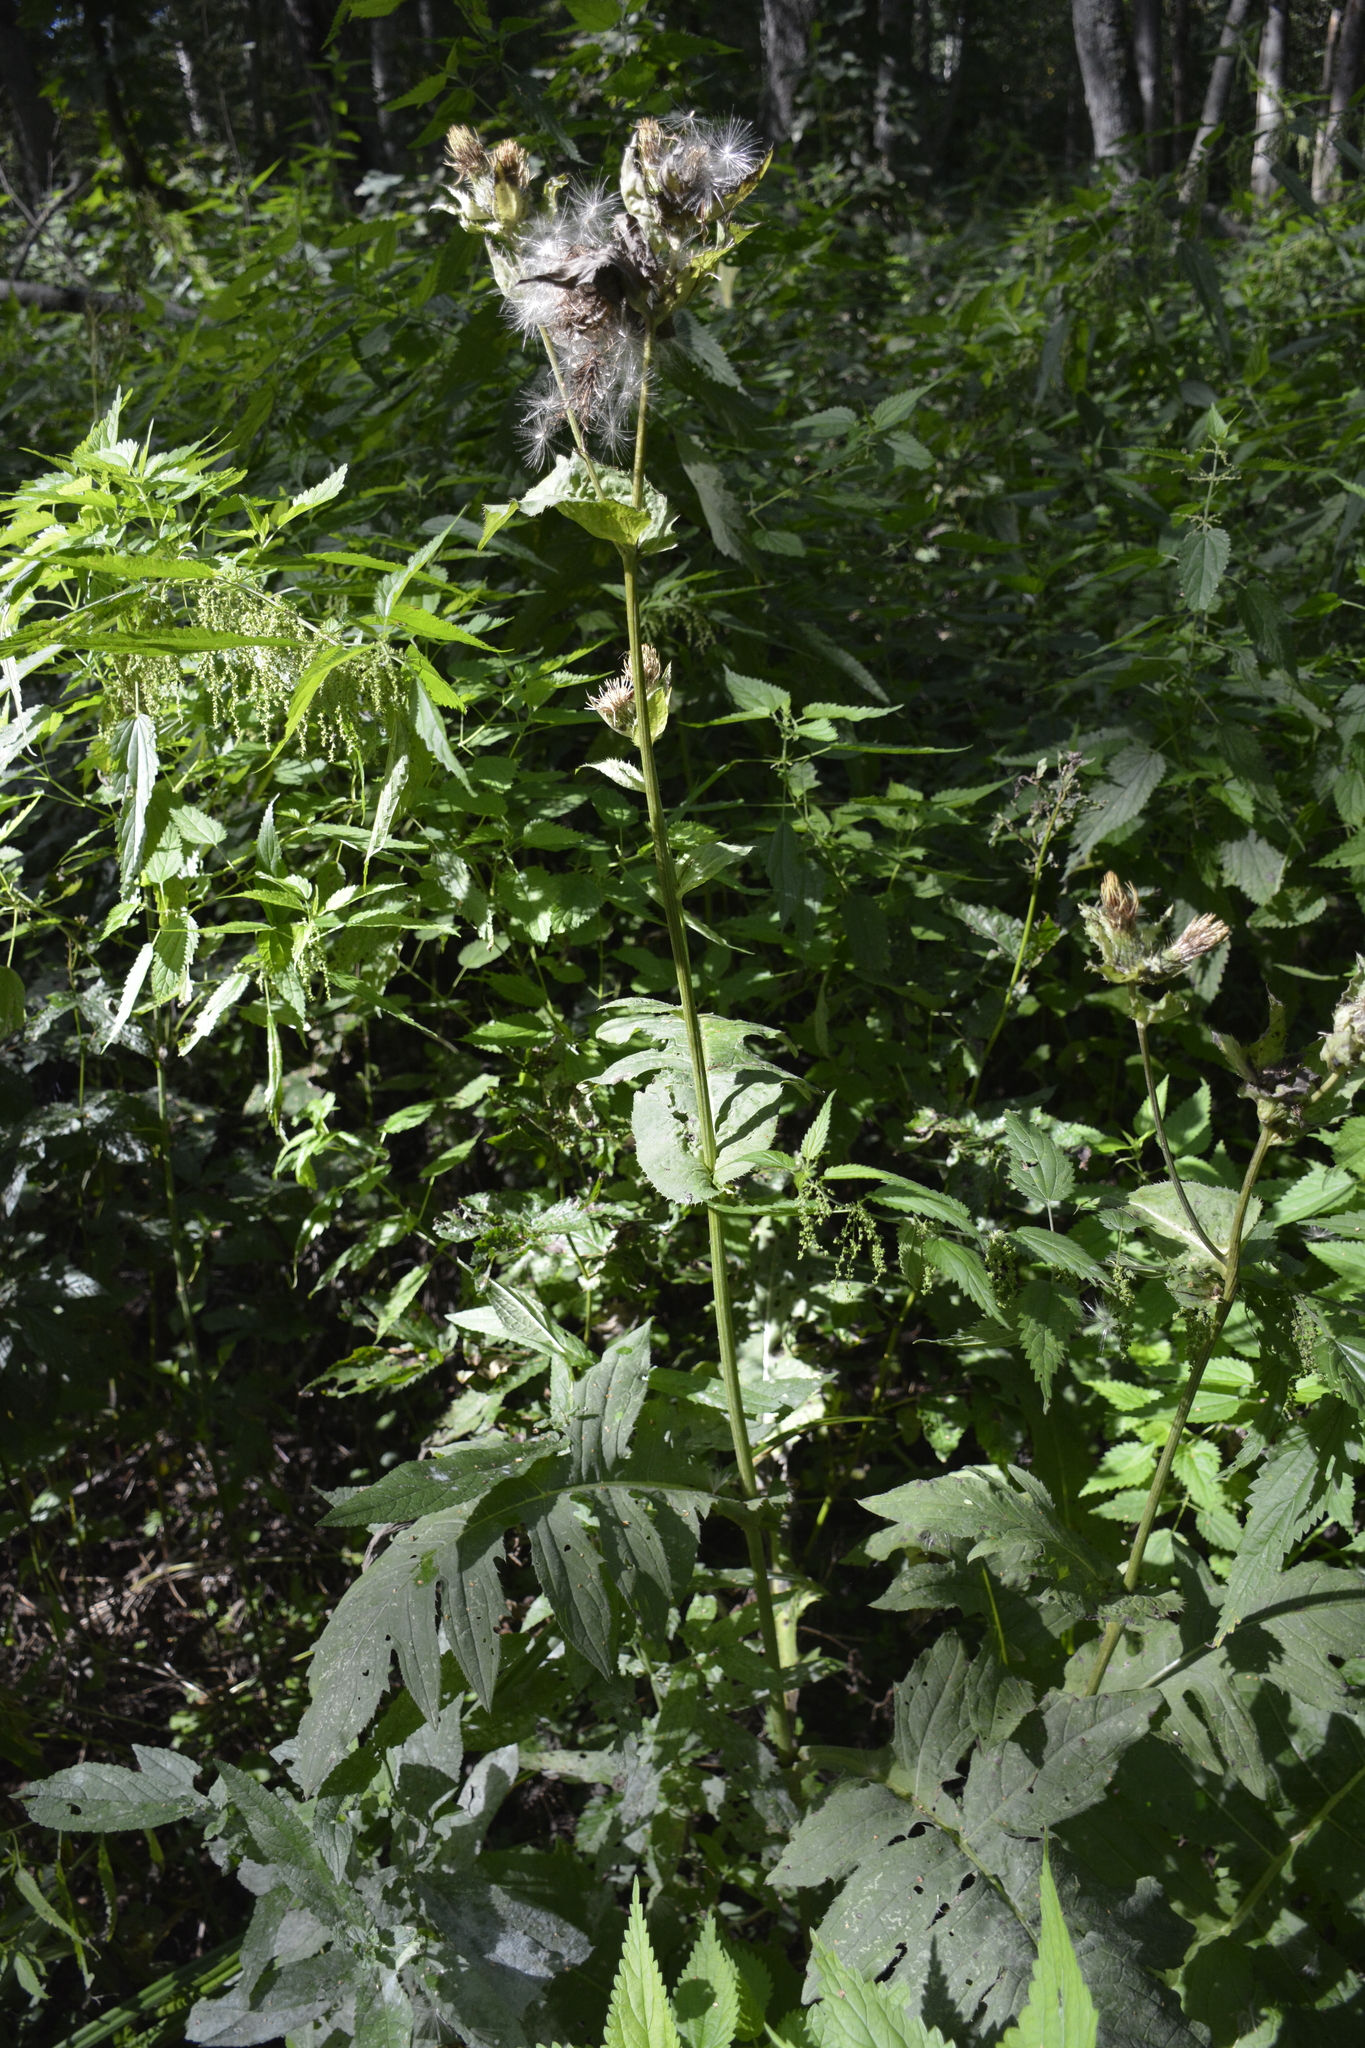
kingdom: Plantae
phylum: Tracheophyta
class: Magnoliopsida
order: Asterales
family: Asteraceae
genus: Cirsium
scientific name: Cirsium oleraceum
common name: Cabbage thistle
